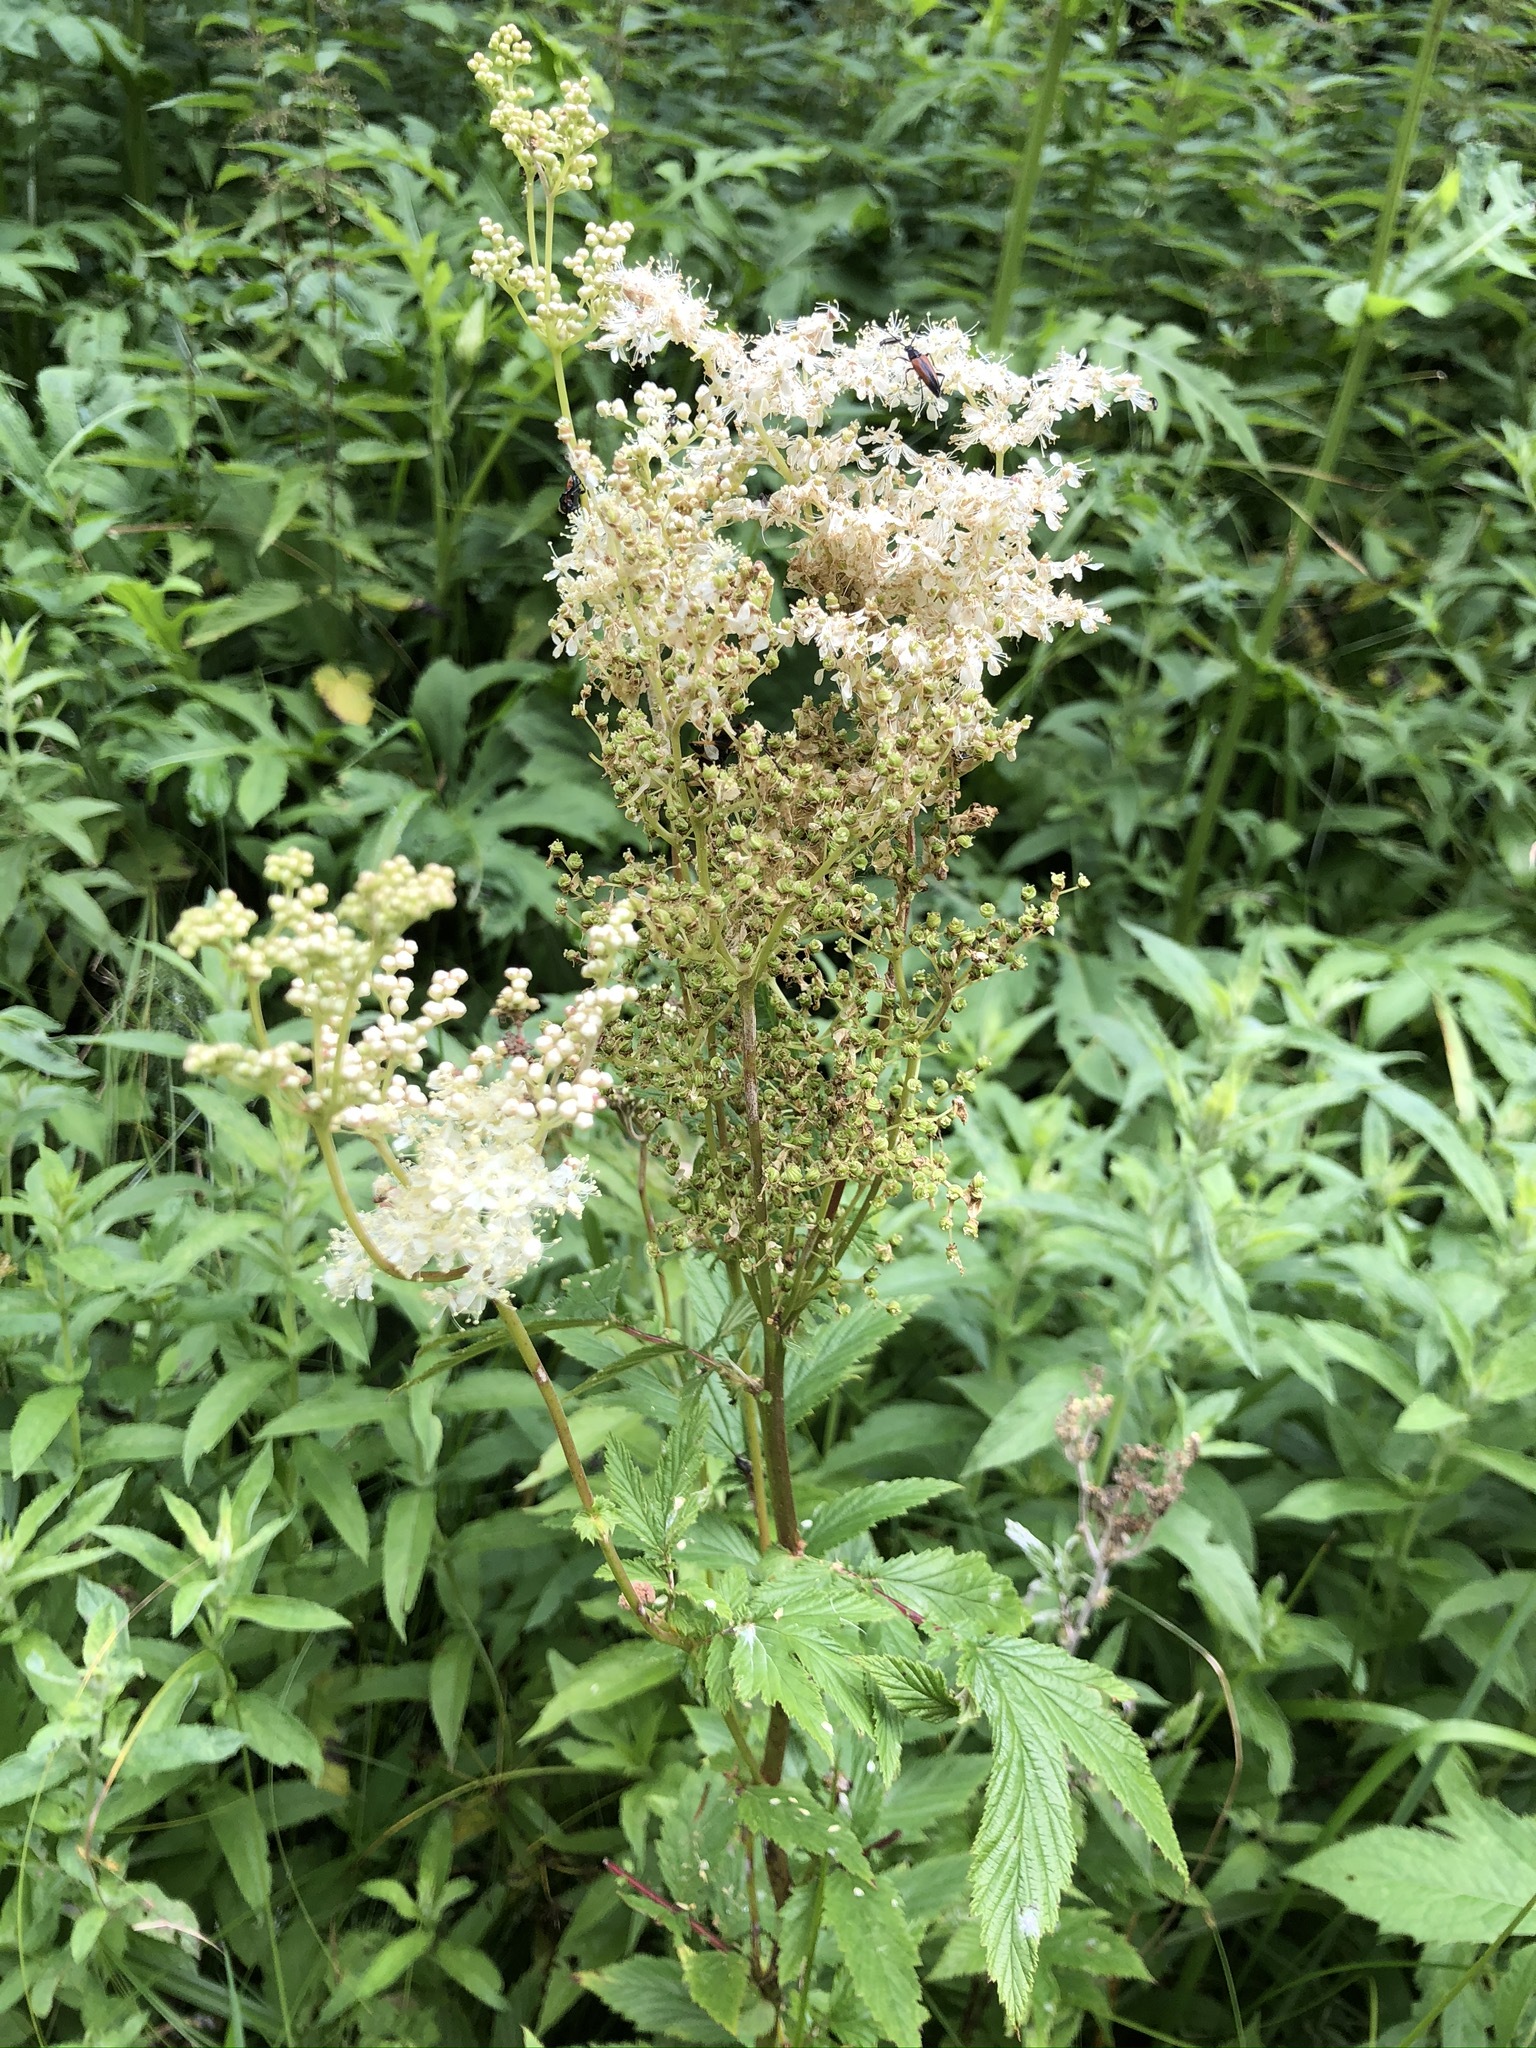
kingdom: Plantae
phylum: Tracheophyta
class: Magnoliopsida
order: Rosales
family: Rosaceae
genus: Filipendula
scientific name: Filipendula ulmaria
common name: Meadowsweet
